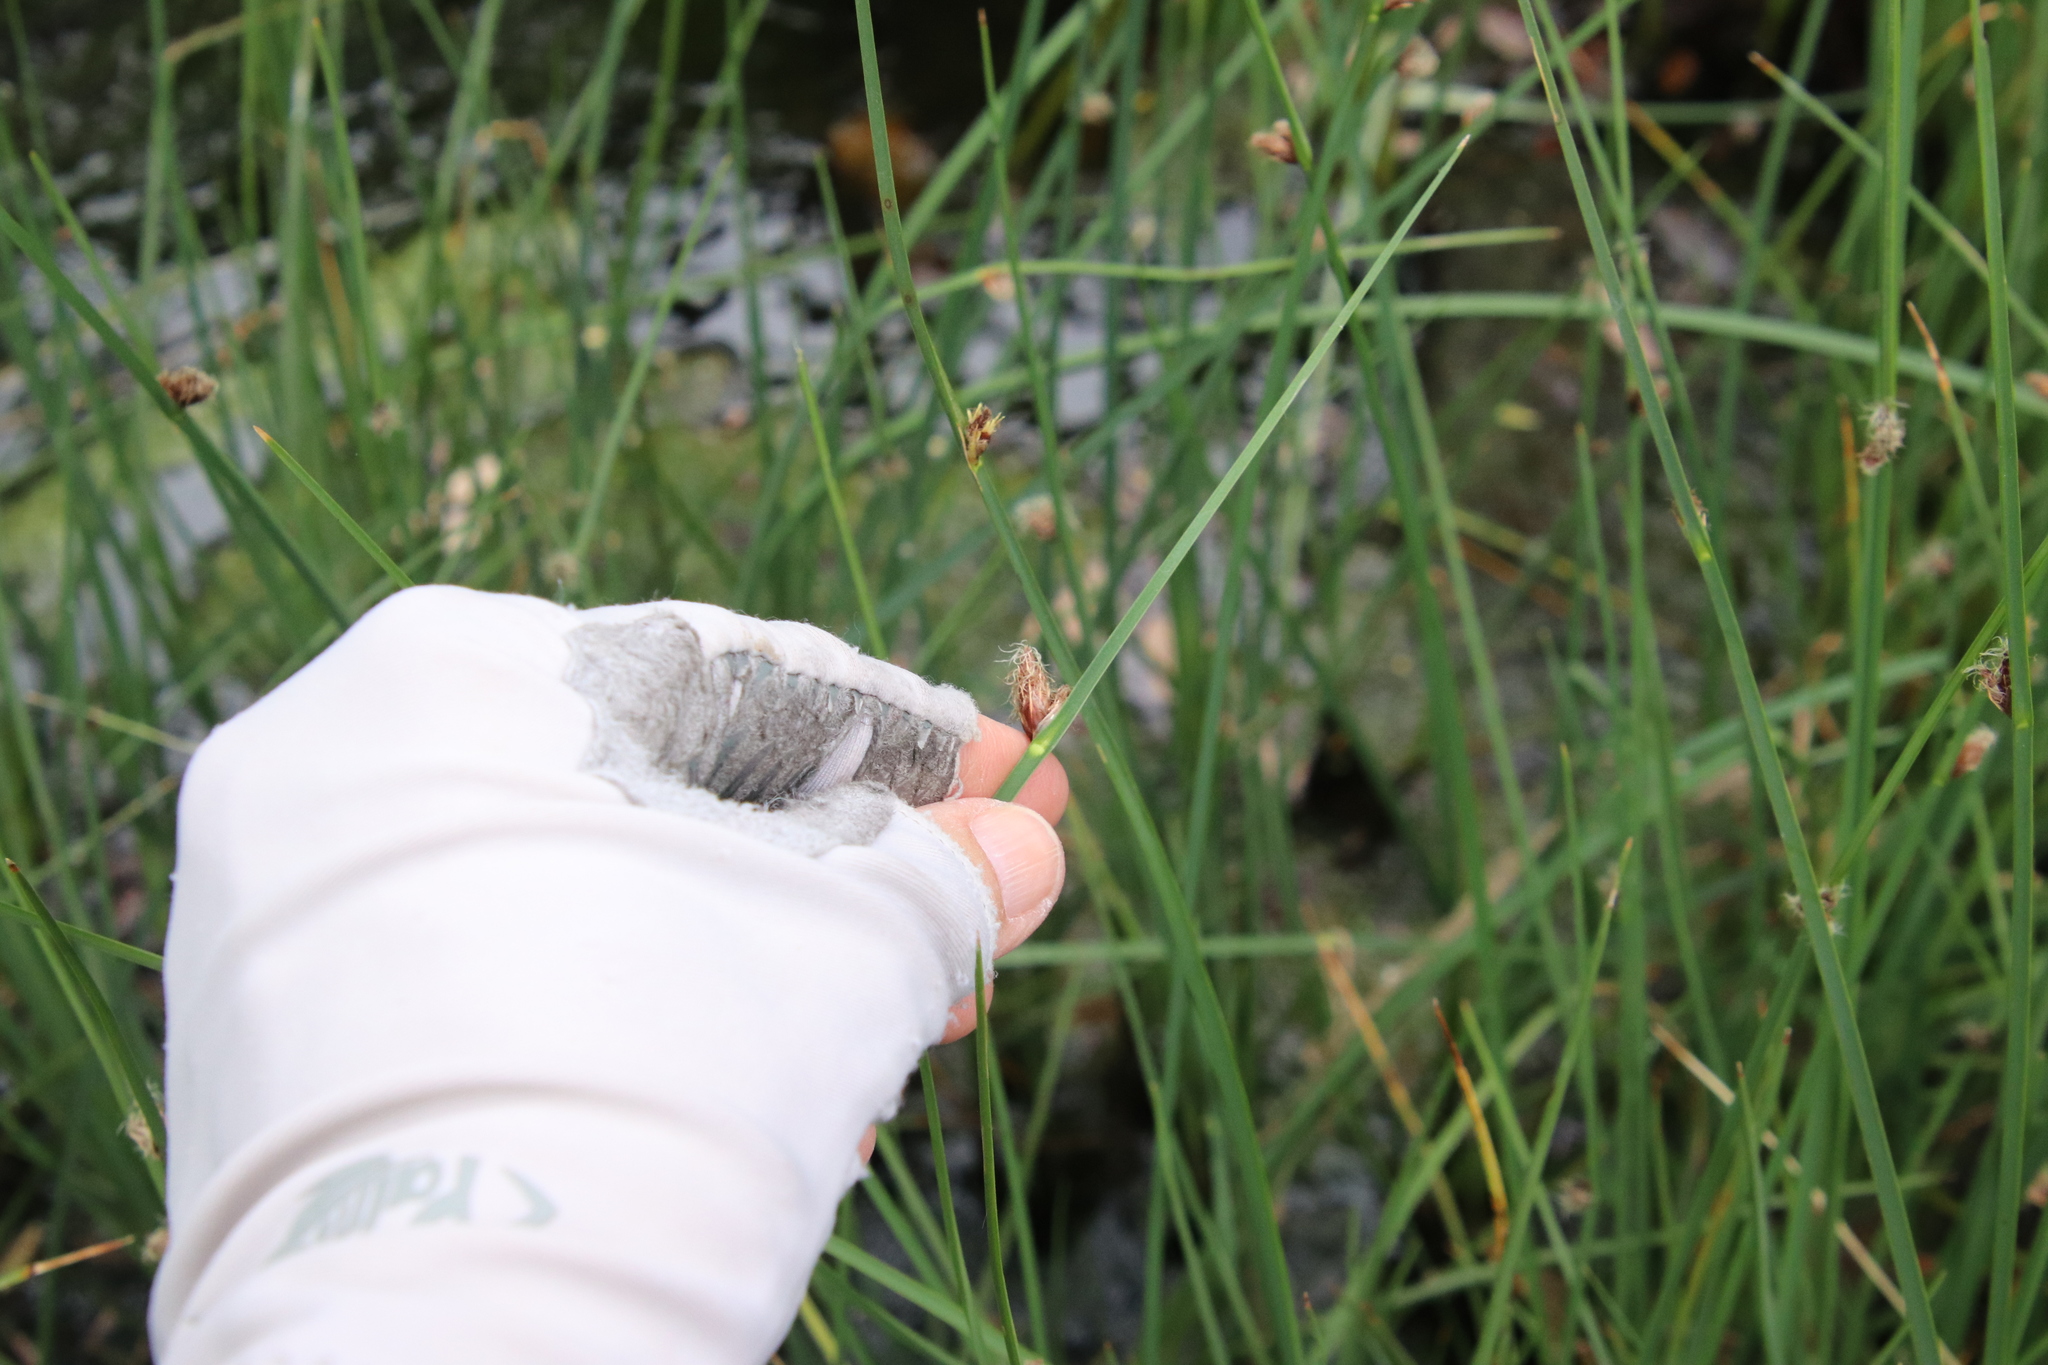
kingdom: Plantae
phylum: Tracheophyta
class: Liliopsida
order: Poales
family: Cyperaceae
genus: Schoenoplectus
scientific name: Schoenoplectus pungens
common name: Sharp club-rush
